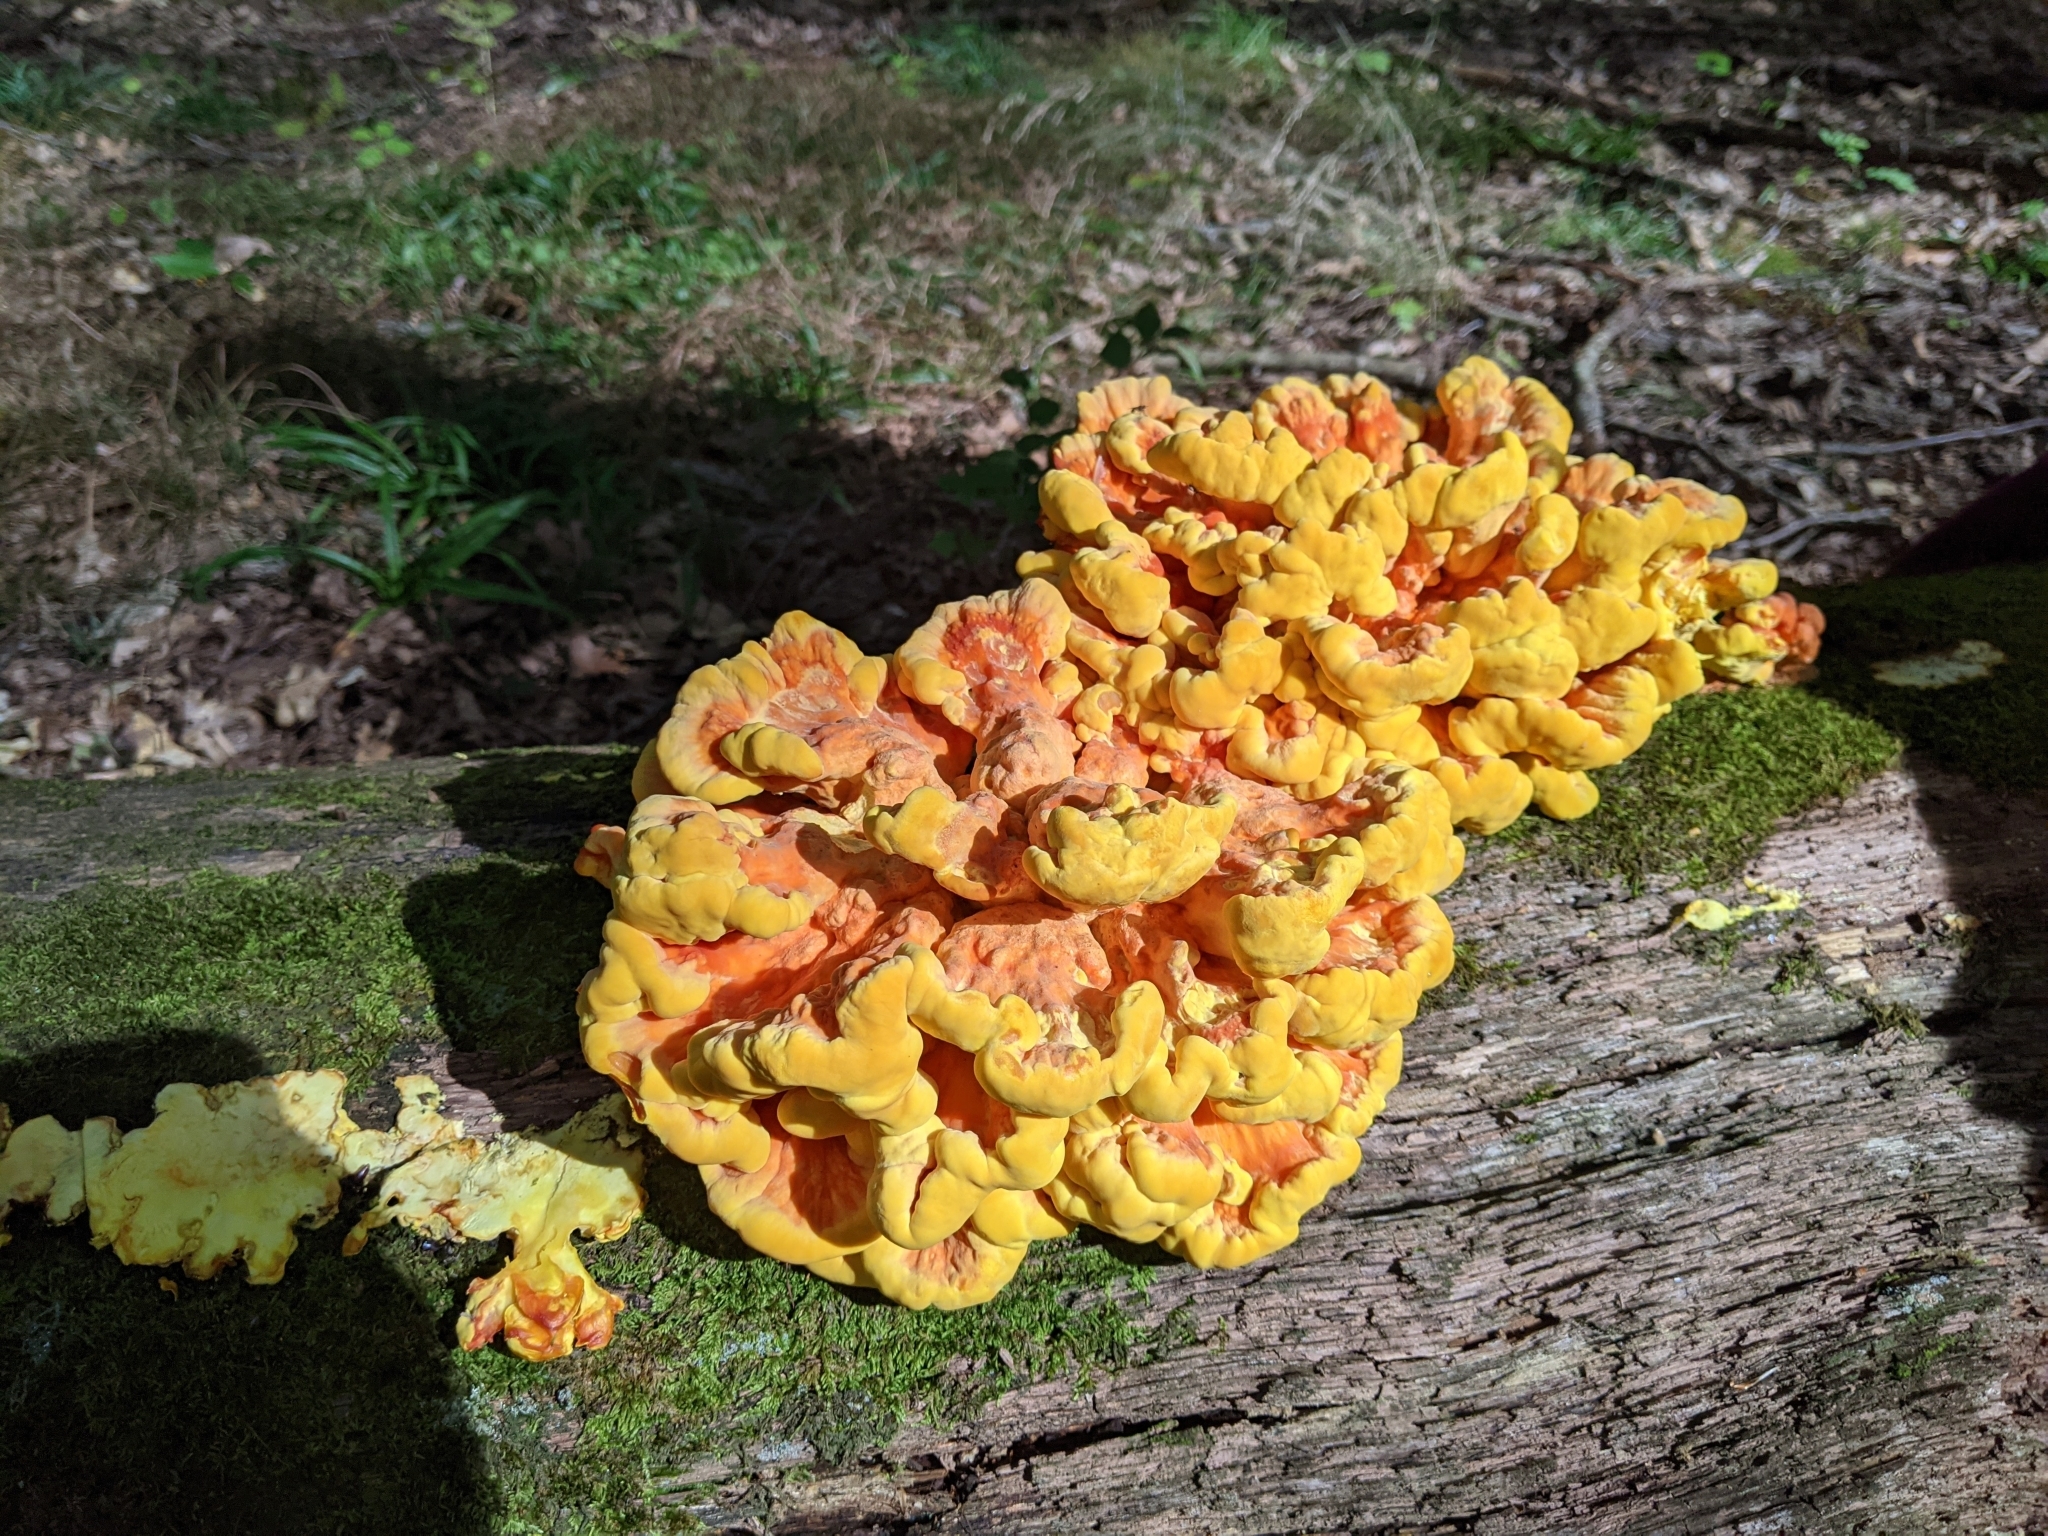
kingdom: Fungi
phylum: Basidiomycota
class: Agaricomycetes
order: Polyporales
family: Laetiporaceae
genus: Laetiporus
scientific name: Laetiporus sulphureus
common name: Chicken of the woods
